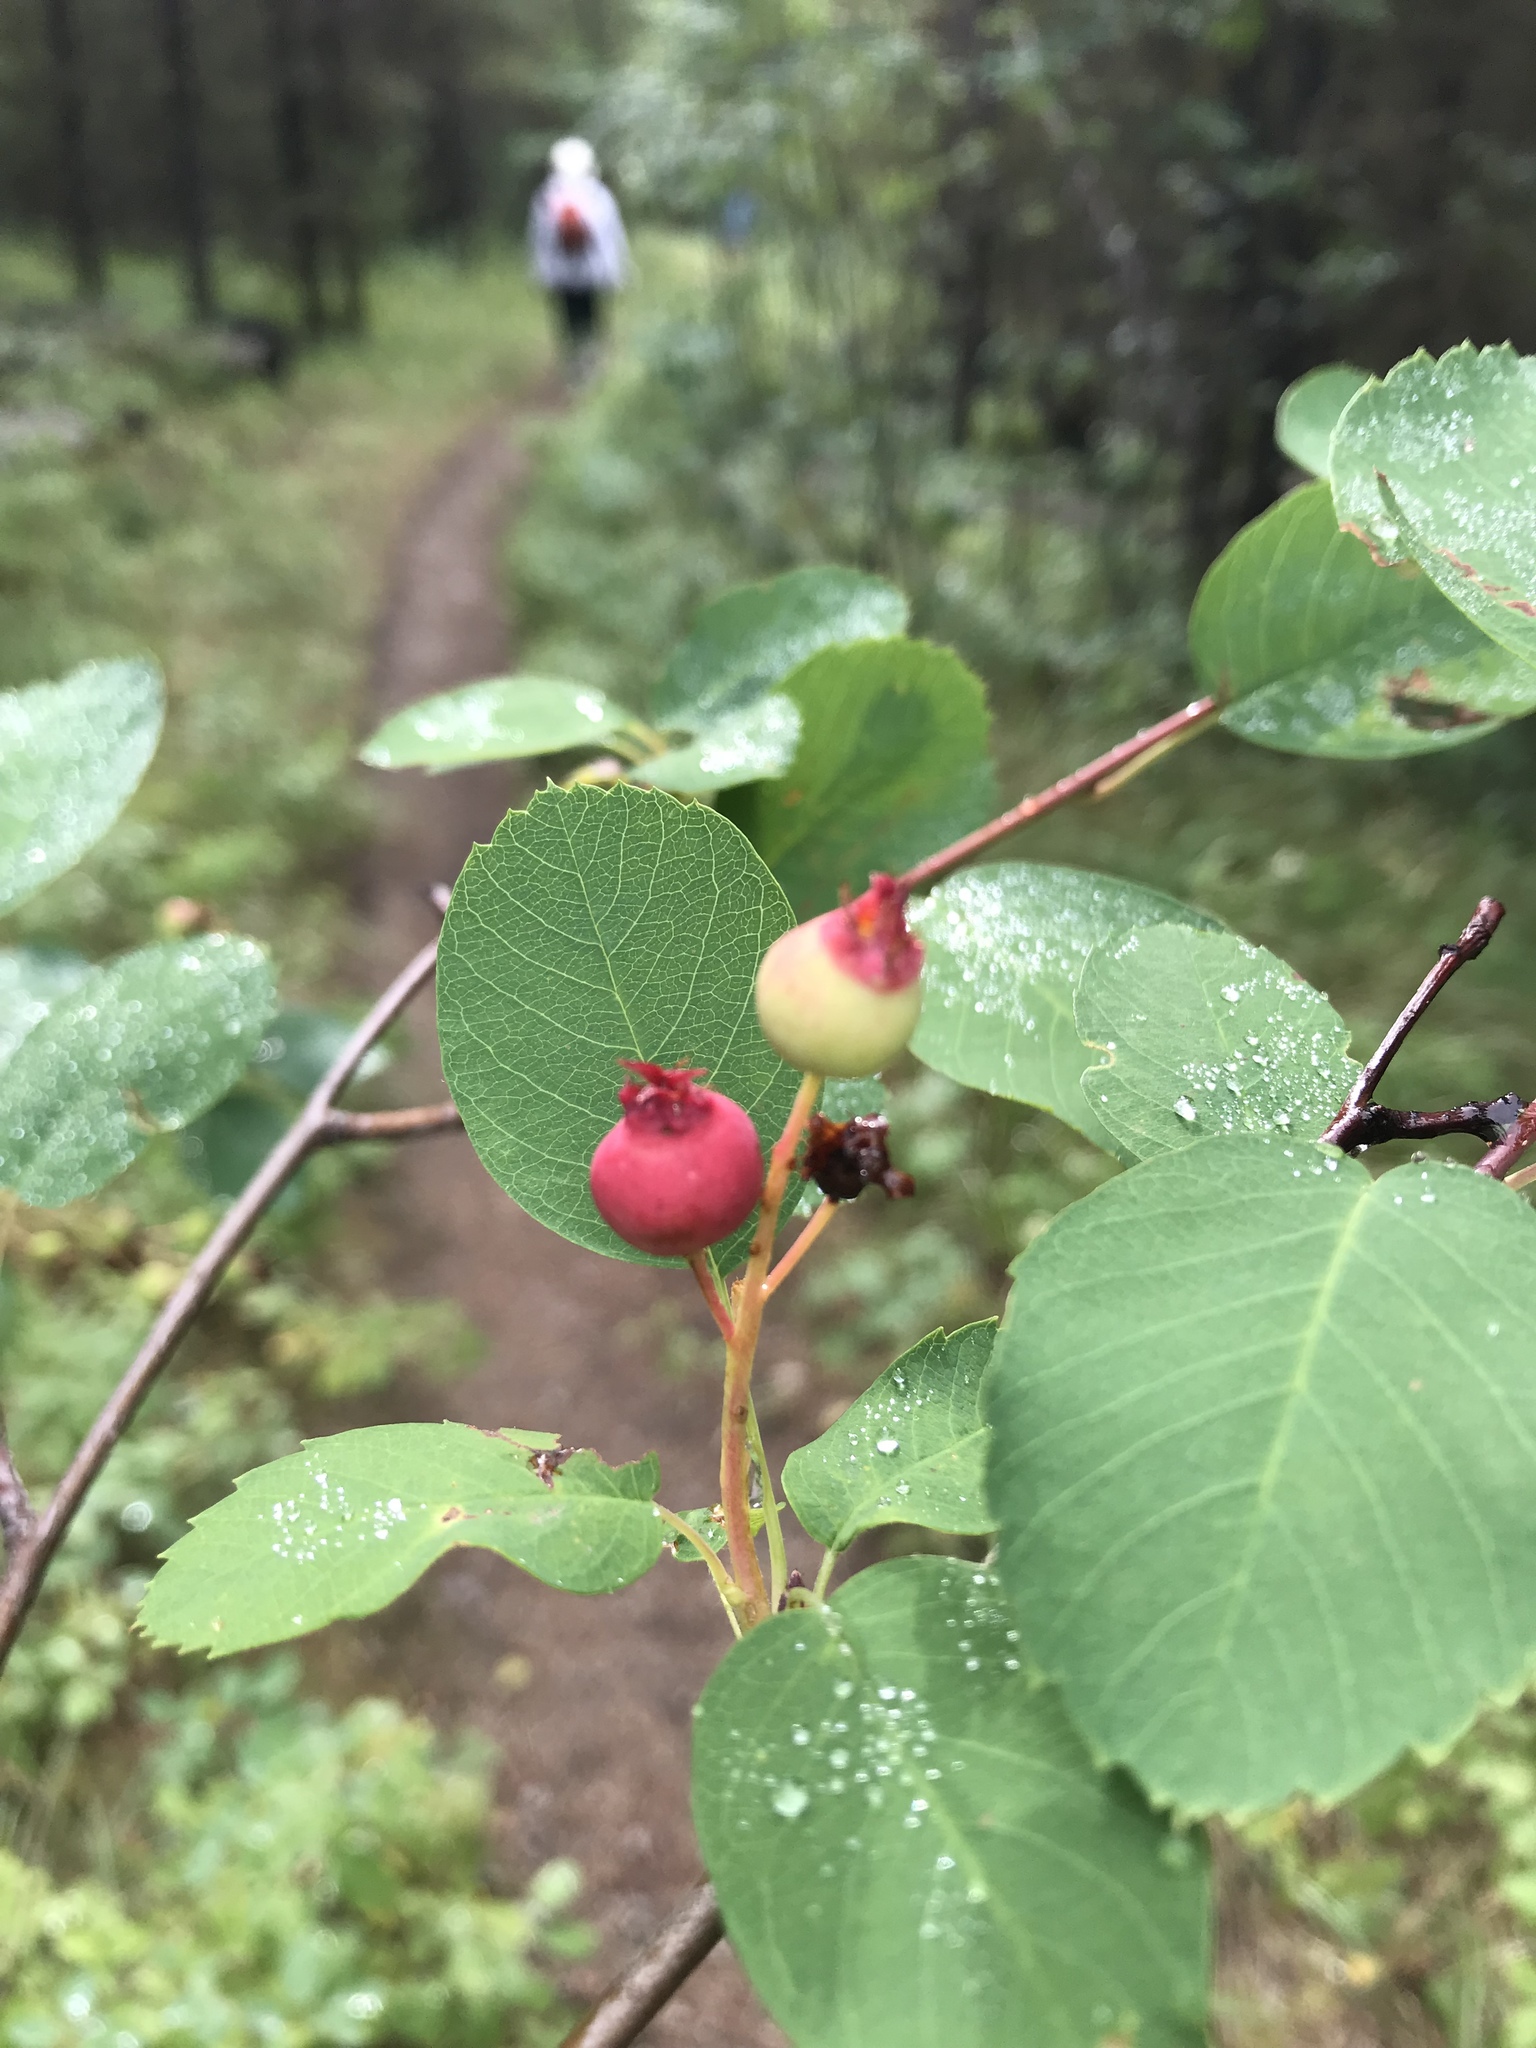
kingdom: Plantae
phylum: Tracheophyta
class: Magnoliopsida
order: Rosales
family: Rosaceae
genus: Amelanchier
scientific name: Amelanchier alnifolia
